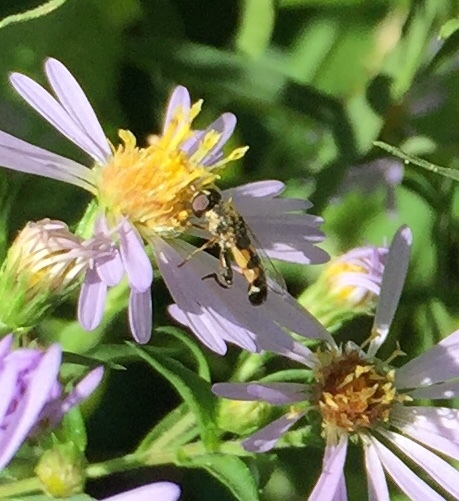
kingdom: Animalia
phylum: Arthropoda
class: Insecta
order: Diptera
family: Syrphidae
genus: Syritta
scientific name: Syritta pipiens
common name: Hover fly
